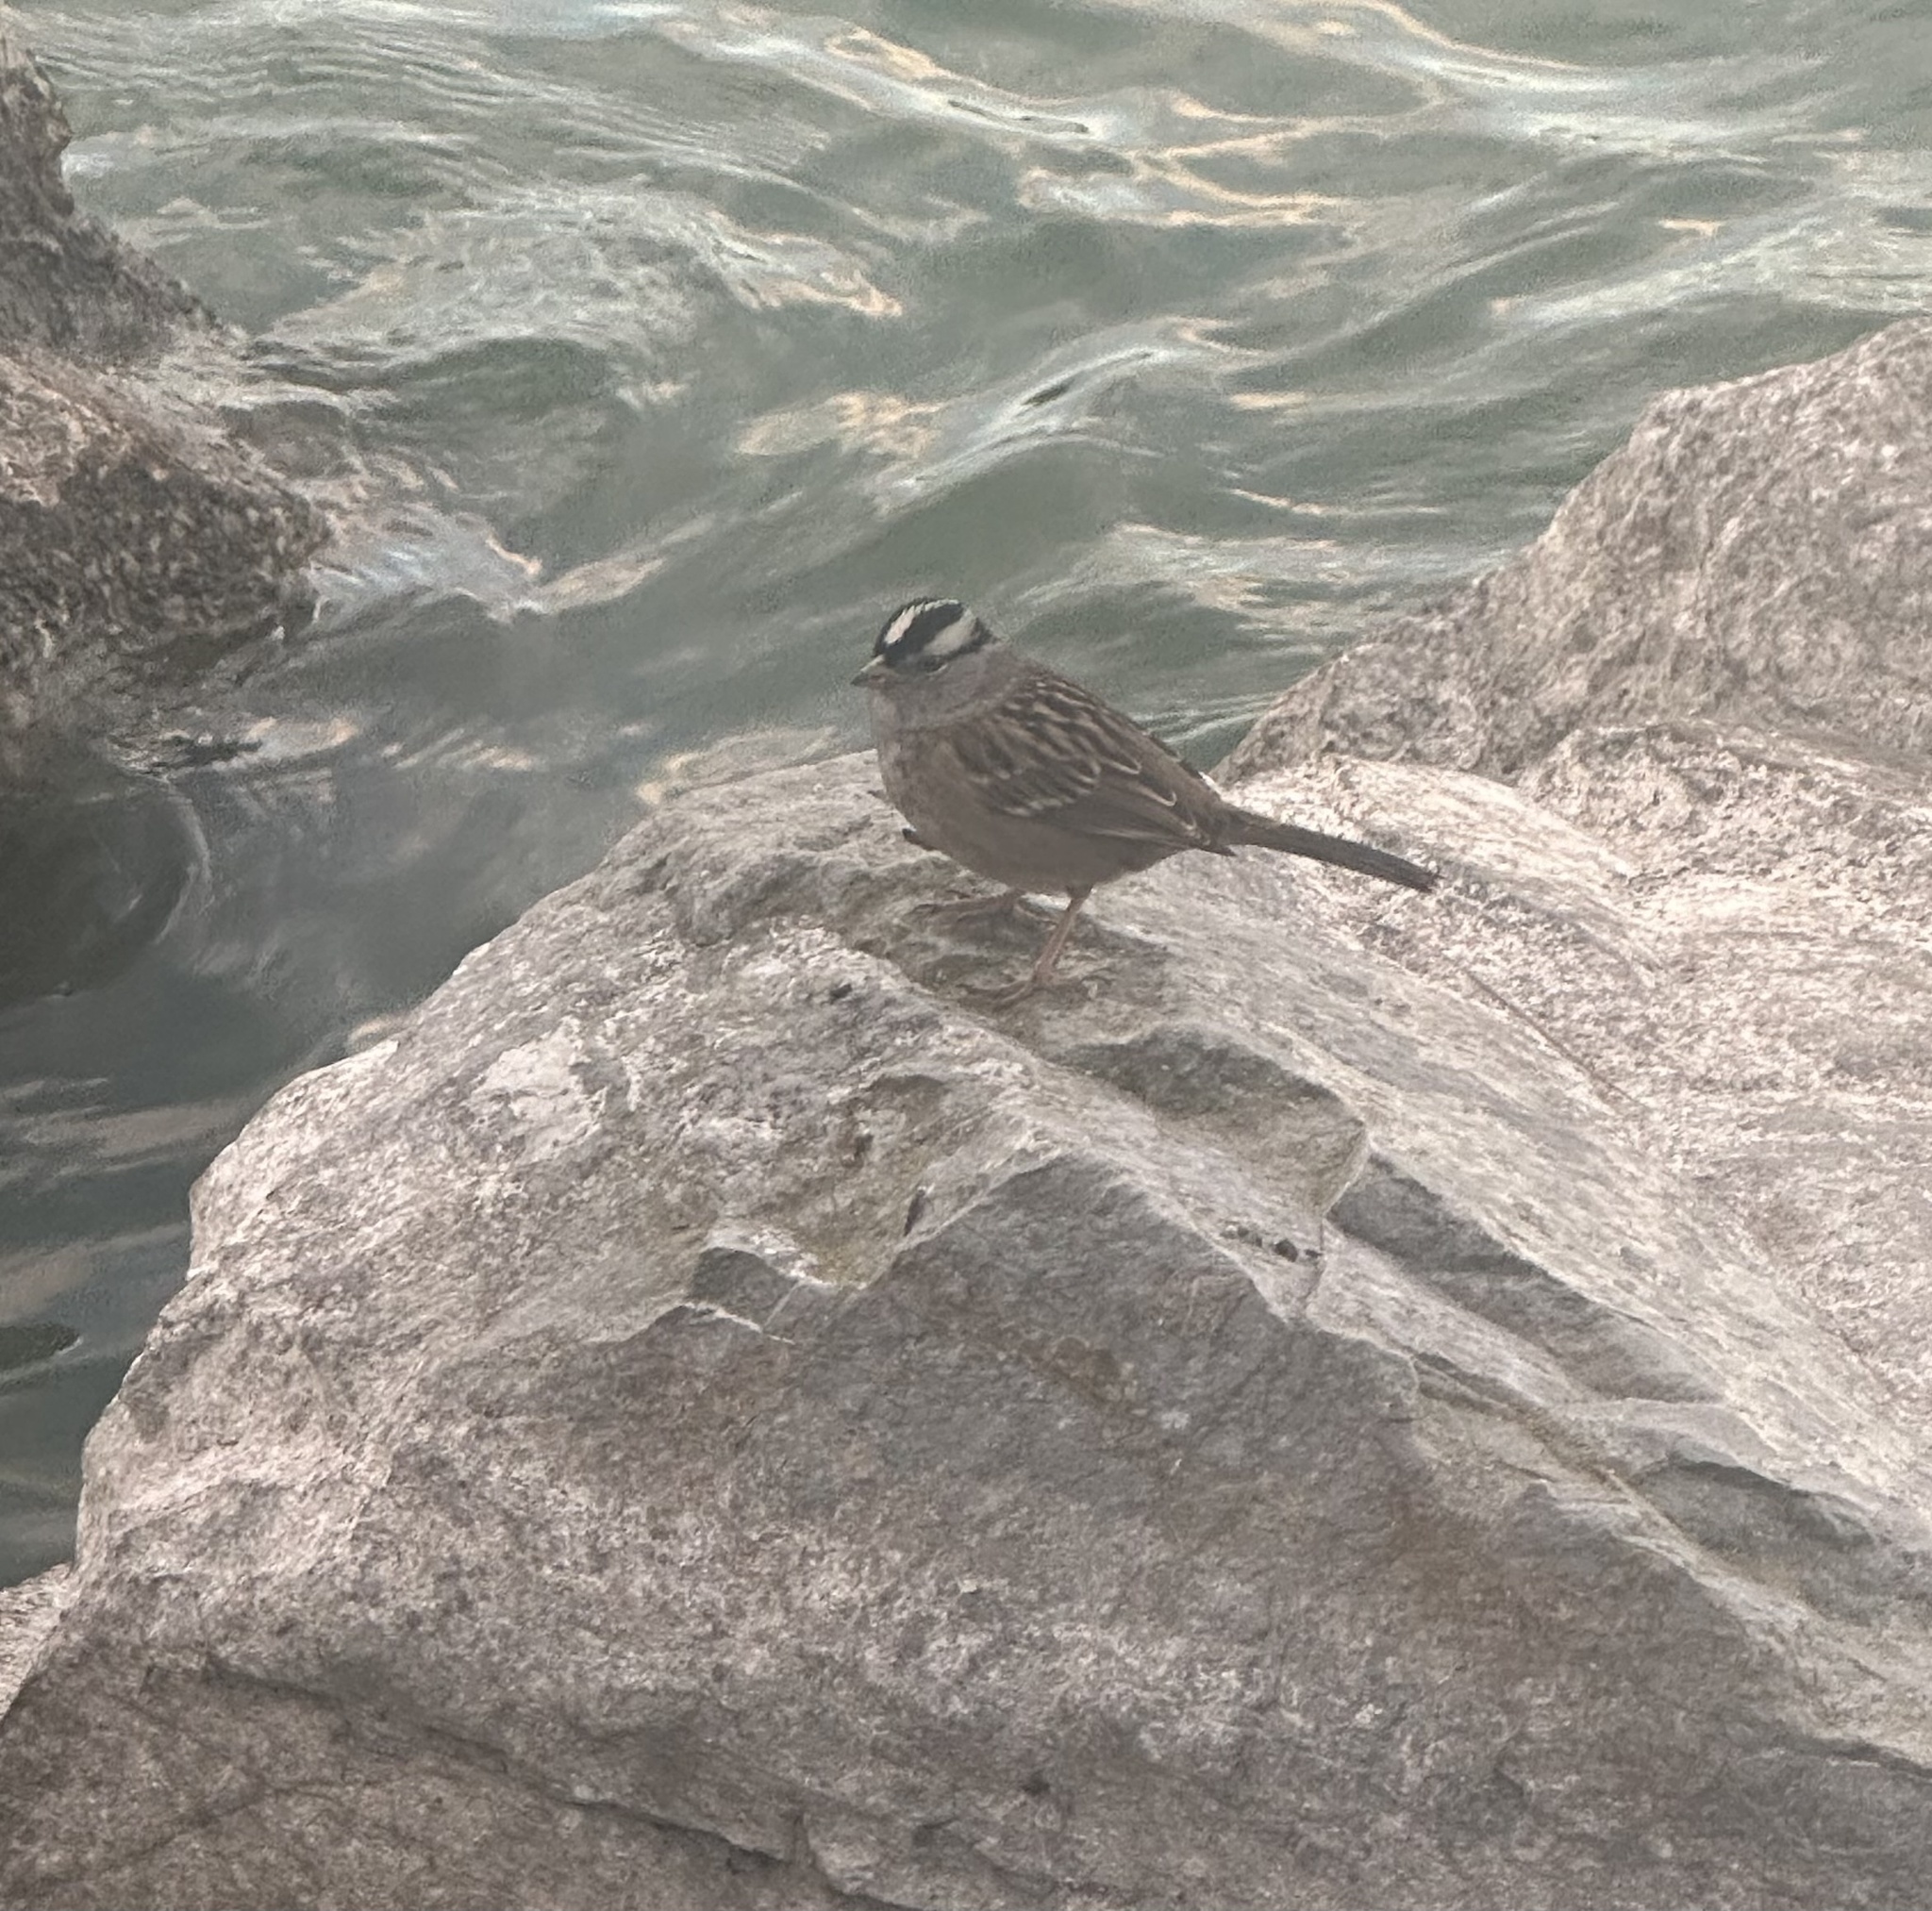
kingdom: Animalia
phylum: Chordata
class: Aves
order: Passeriformes
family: Passerellidae
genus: Zonotrichia
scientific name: Zonotrichia leucophrys
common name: White-crowned sparrow
